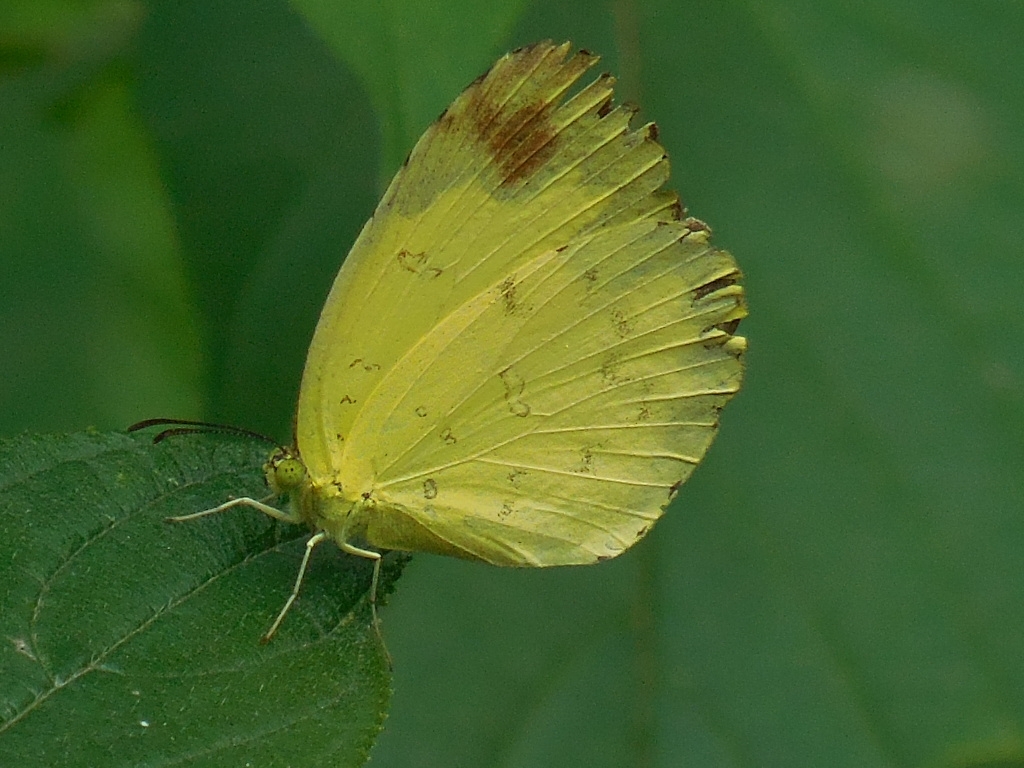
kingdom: Animalia
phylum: Arthropoda
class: Insecta
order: Lepidoptera
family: Pieridae
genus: Eurema
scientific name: Eurema blanda
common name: Three-spot grass yellow
